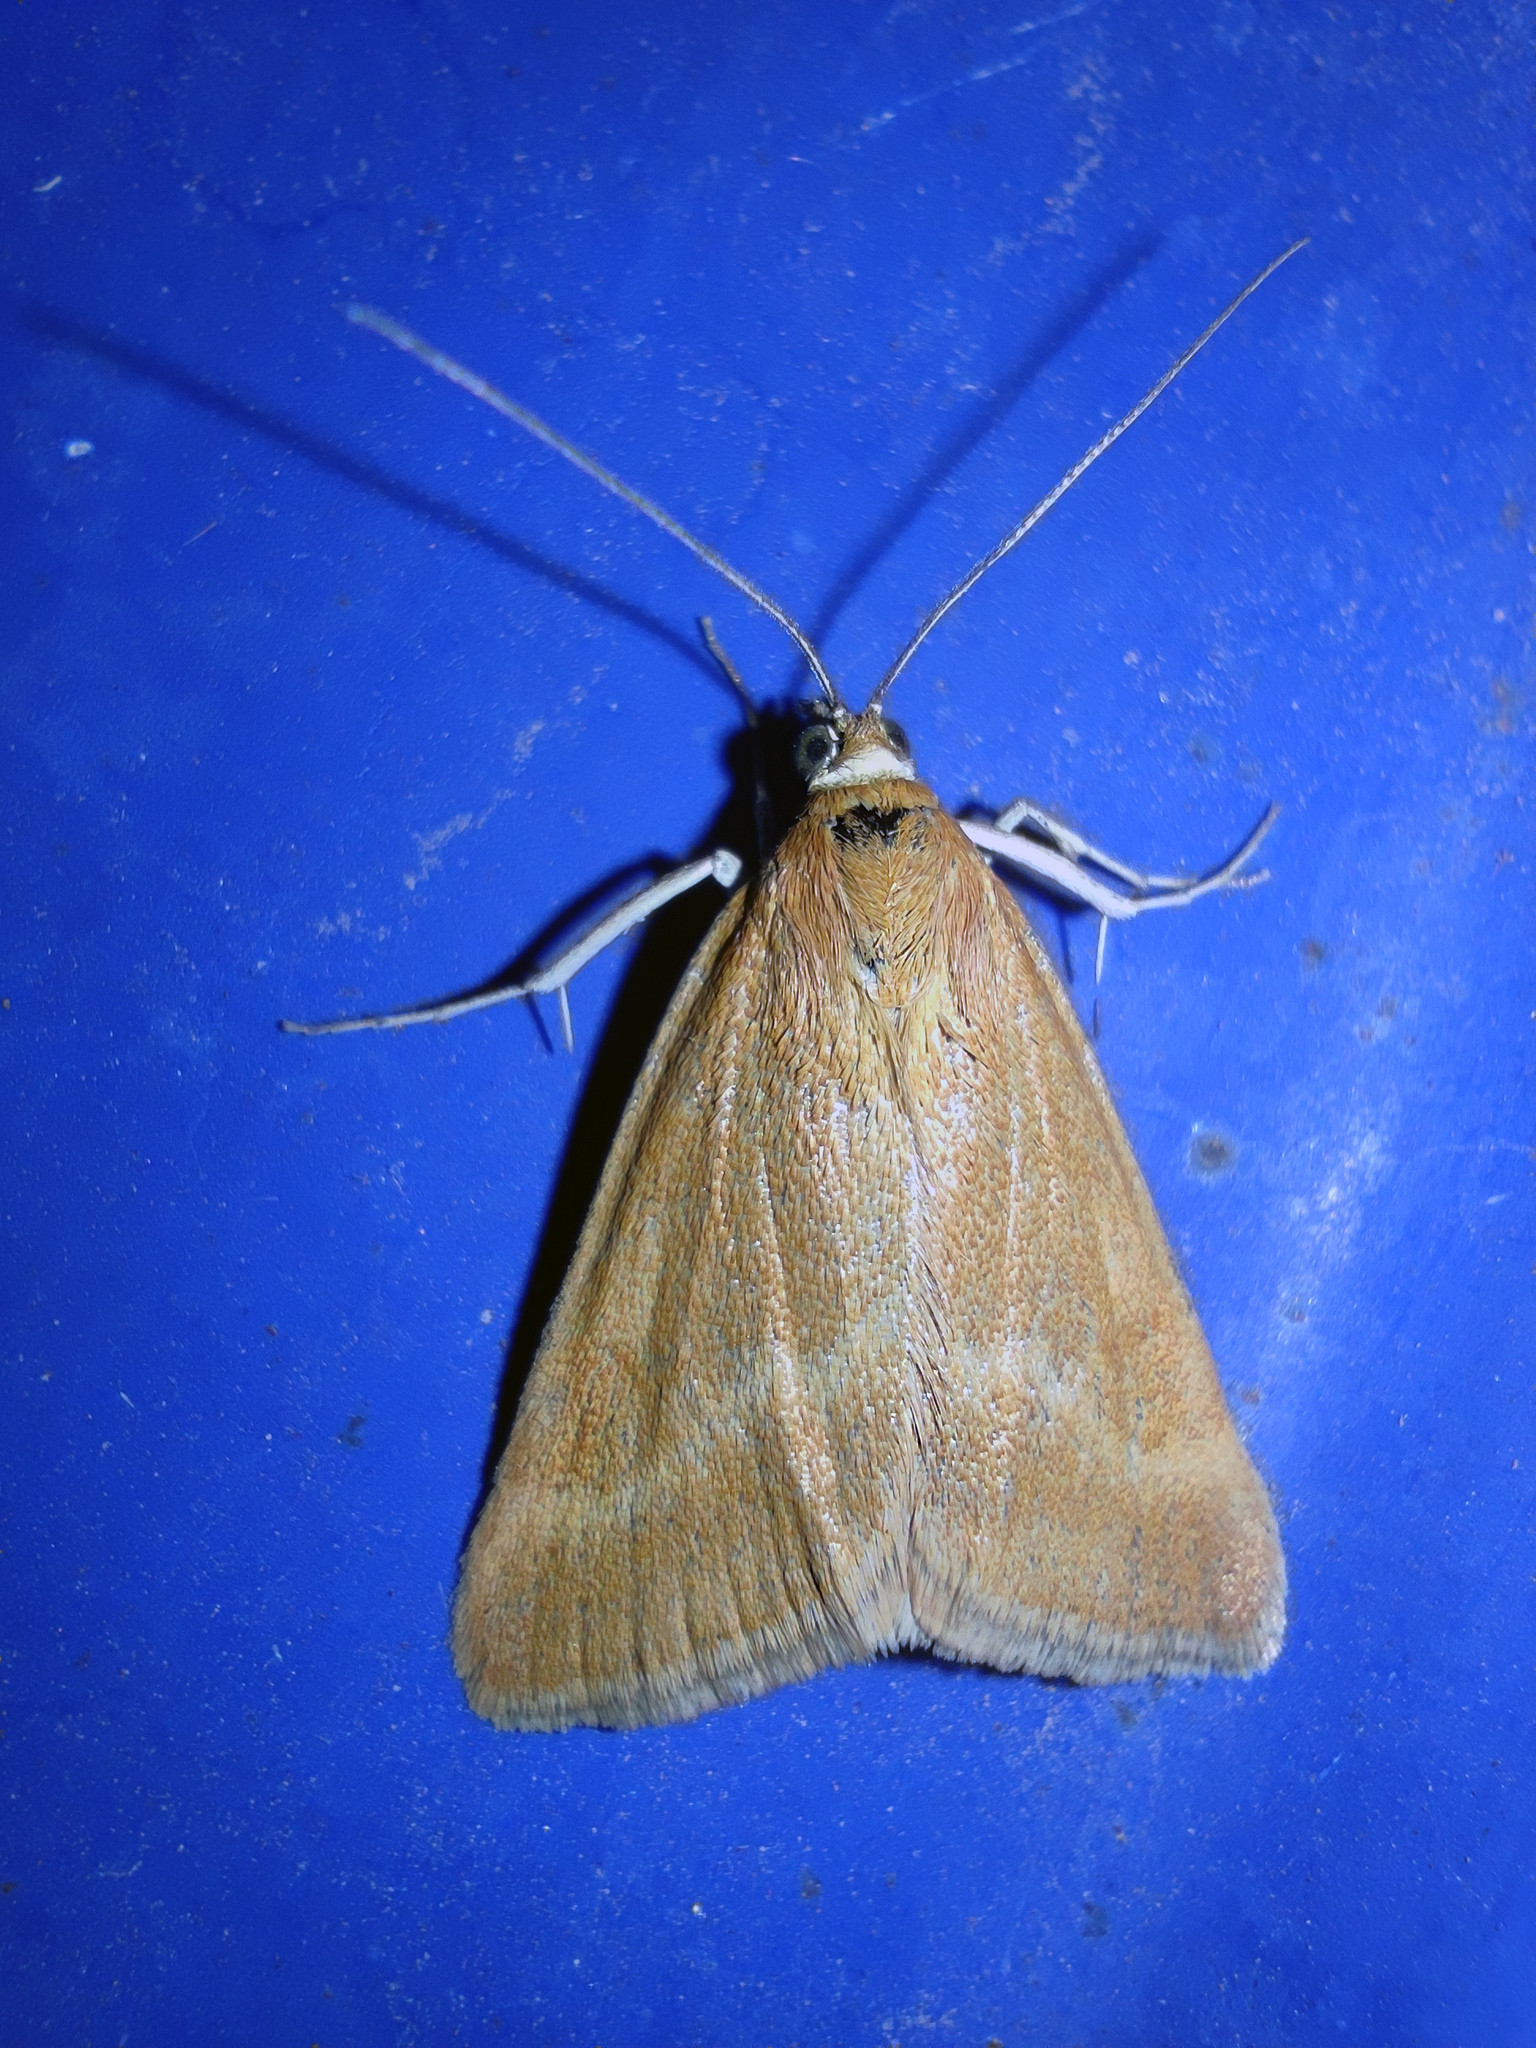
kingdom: Animalia
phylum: Arthropoda
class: Insecta
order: Lepidoptera
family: Crambidae
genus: Pyrausta
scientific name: Pyrausta aerealis
